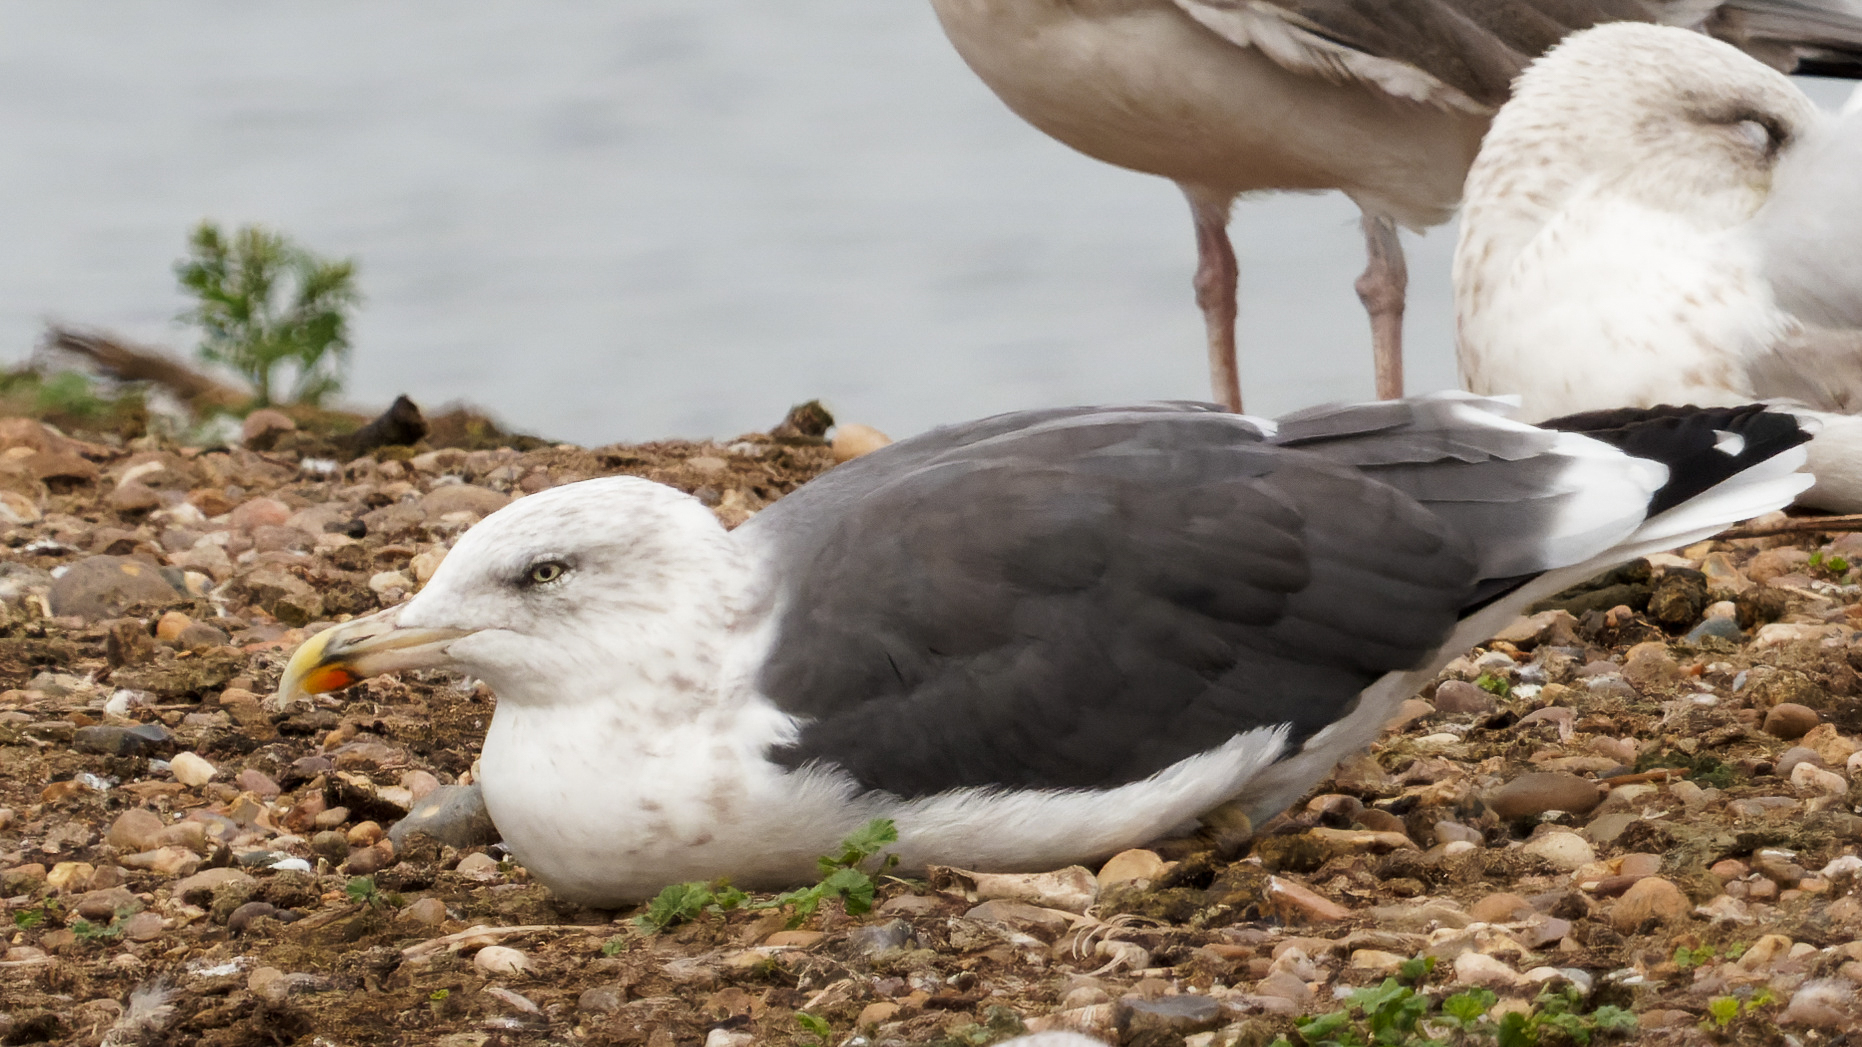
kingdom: Animalia
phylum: Chordata
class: Aves
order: Charadriiformes
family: Laridae
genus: Larus
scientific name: Larus fuscus
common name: Lesser black-backed gull
